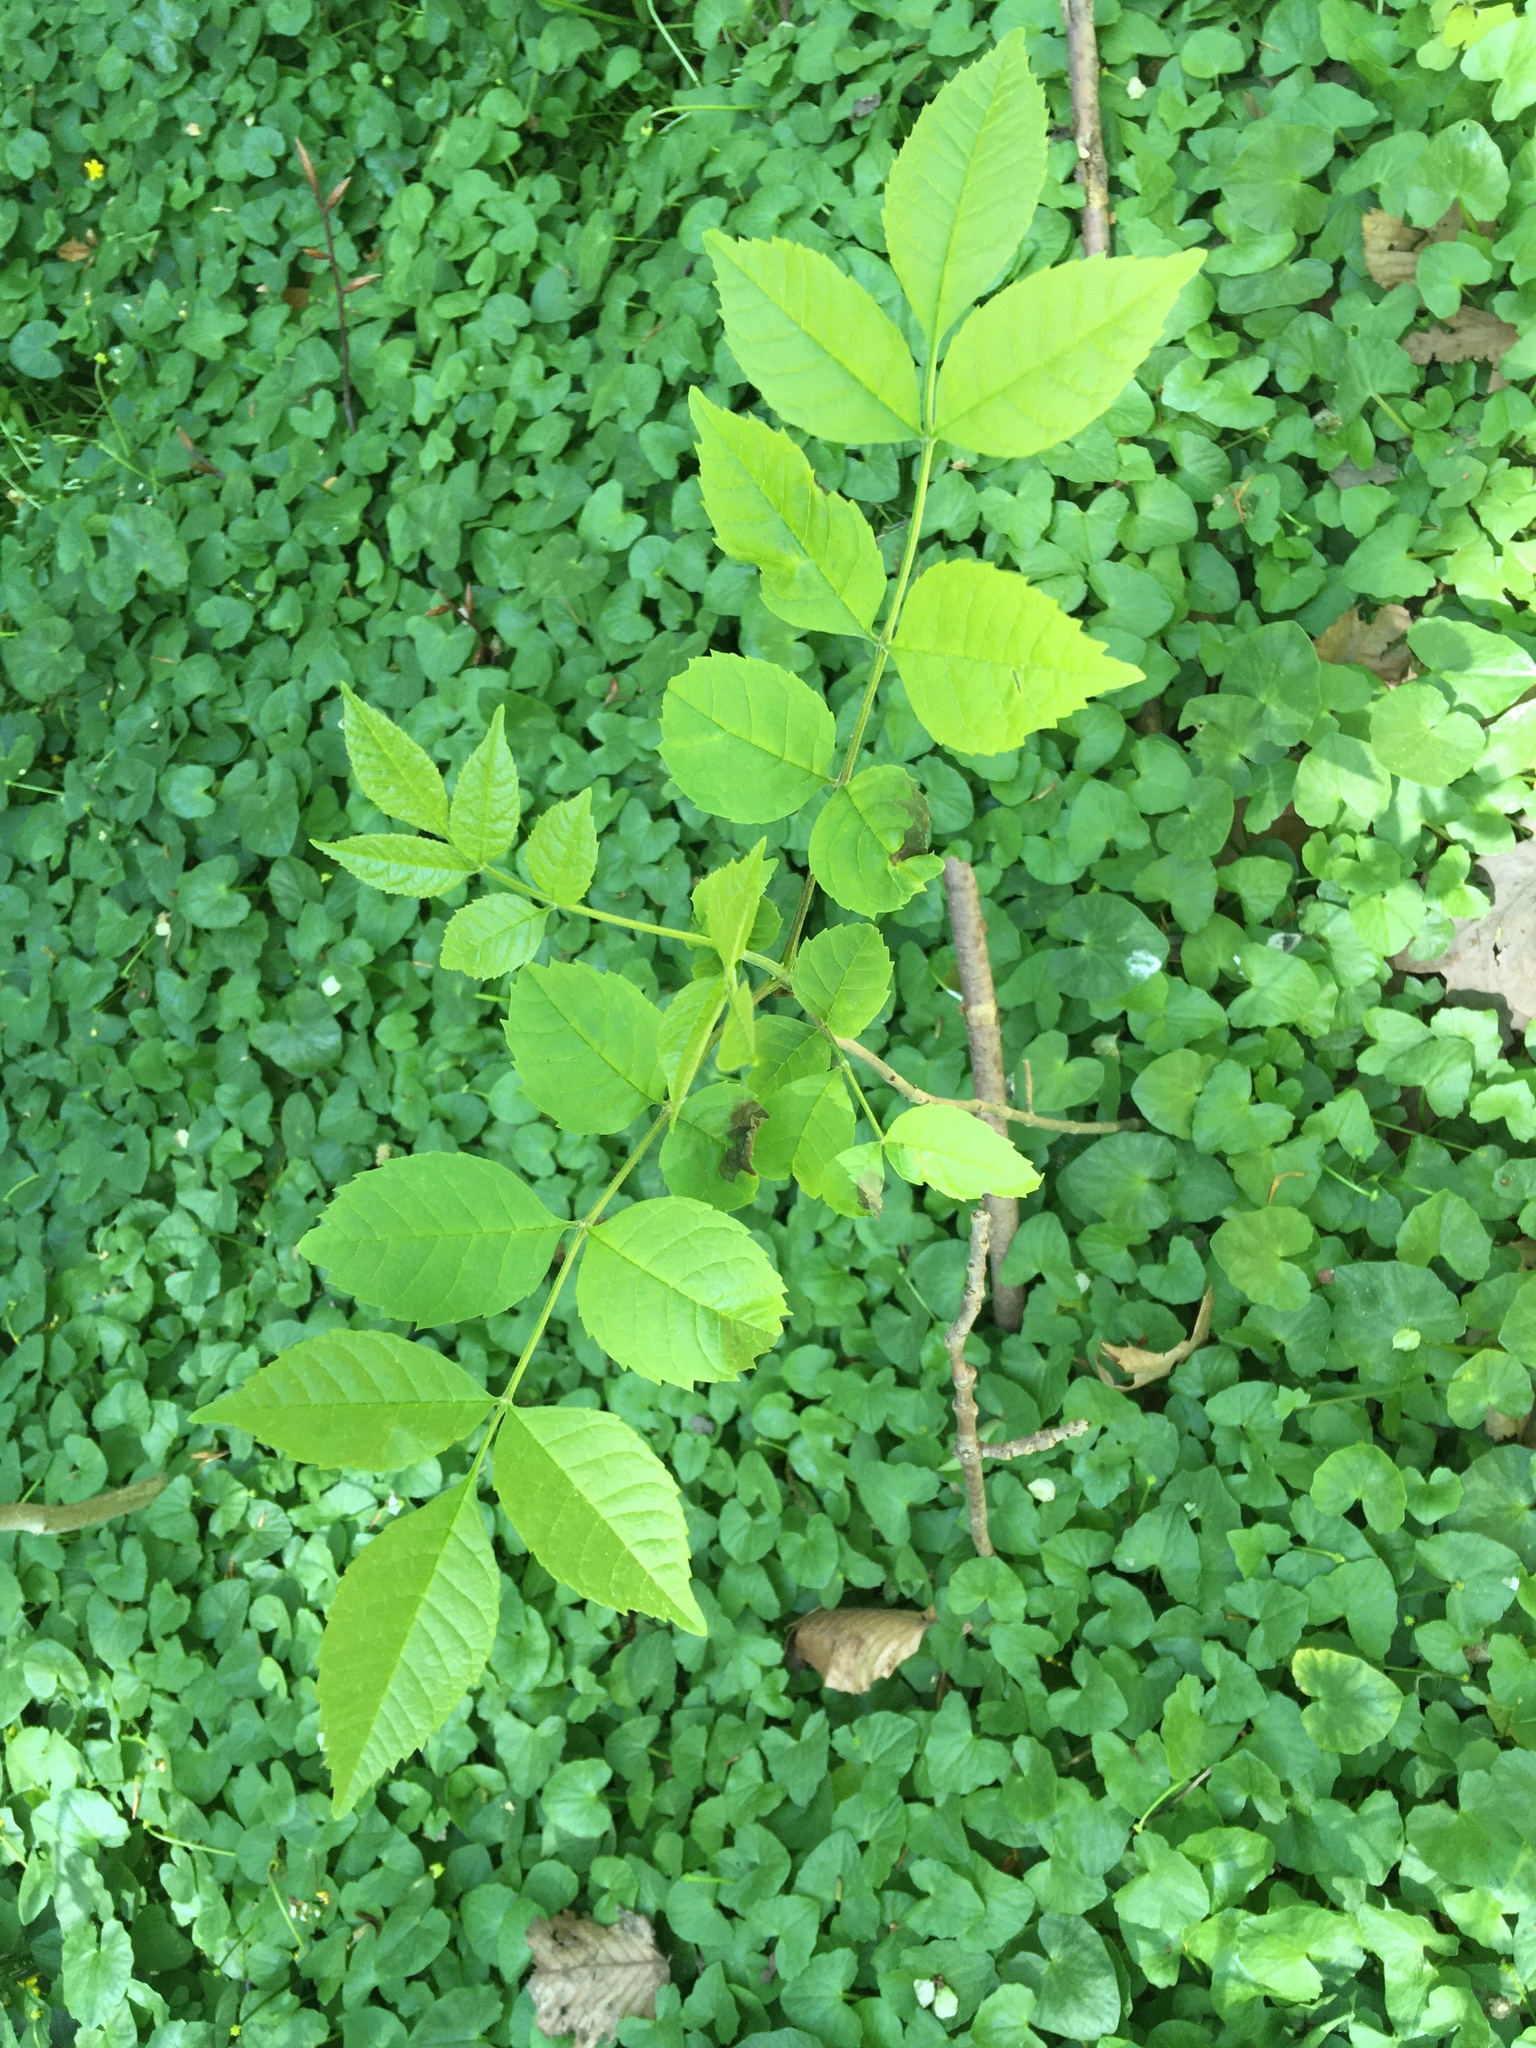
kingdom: Plantae
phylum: Tracheophyta
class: Magnoliopsida
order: Lamiales
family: Oleaceae
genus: Fraxinus
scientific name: Fraxinus pennsylvanica
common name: Green ash
